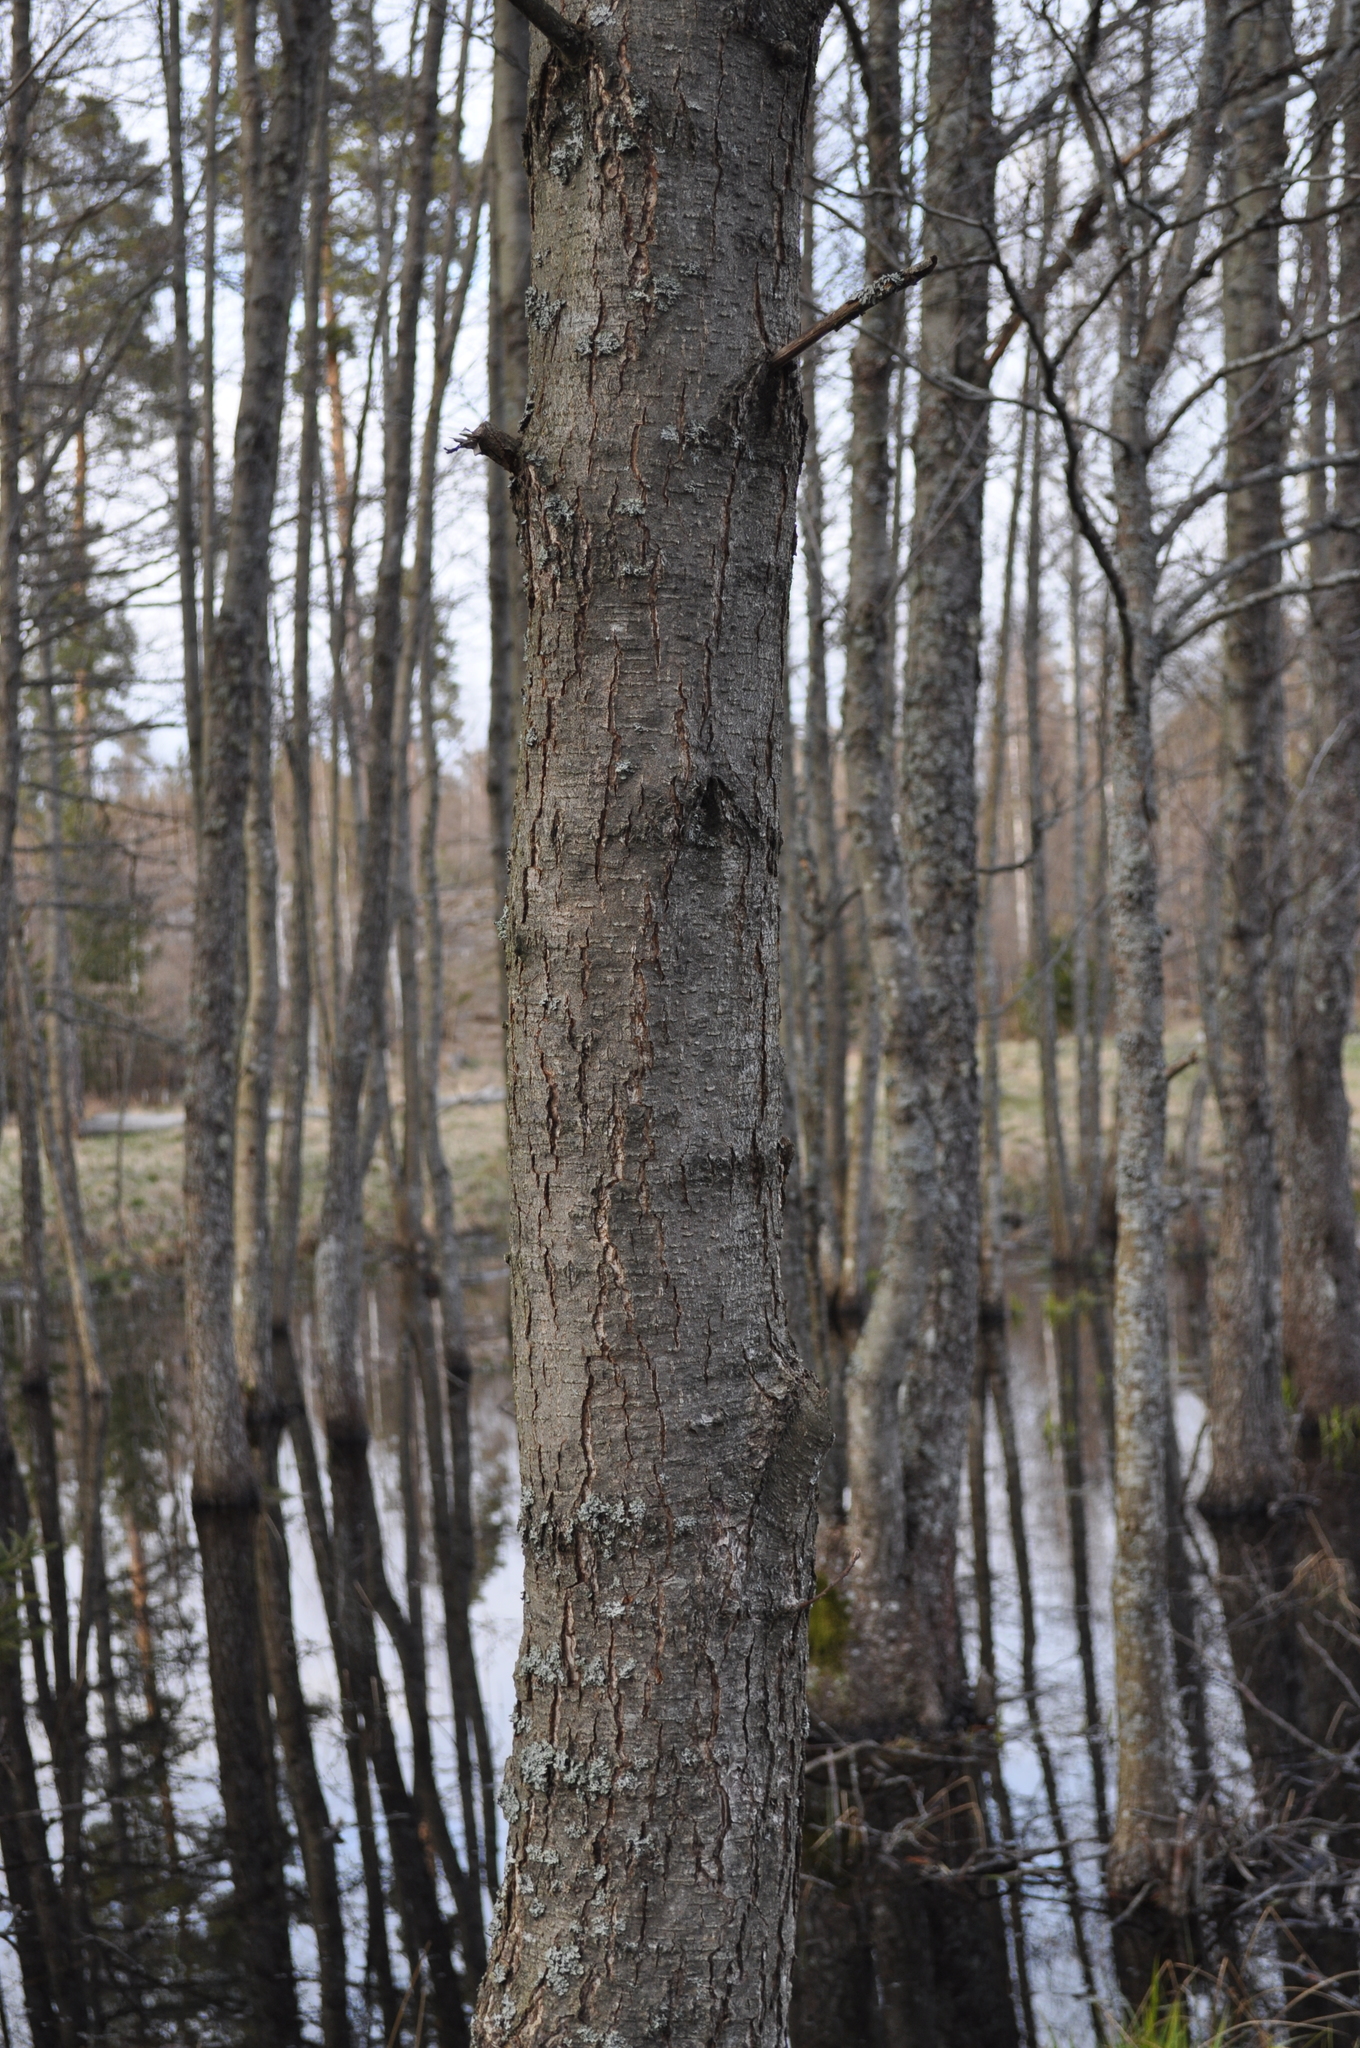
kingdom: Plantae
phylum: Tracheophyta
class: Magnoliopsida
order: Fagales
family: Betulaceae
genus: Alnus
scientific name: Alnus glutinosa
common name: Black alder
